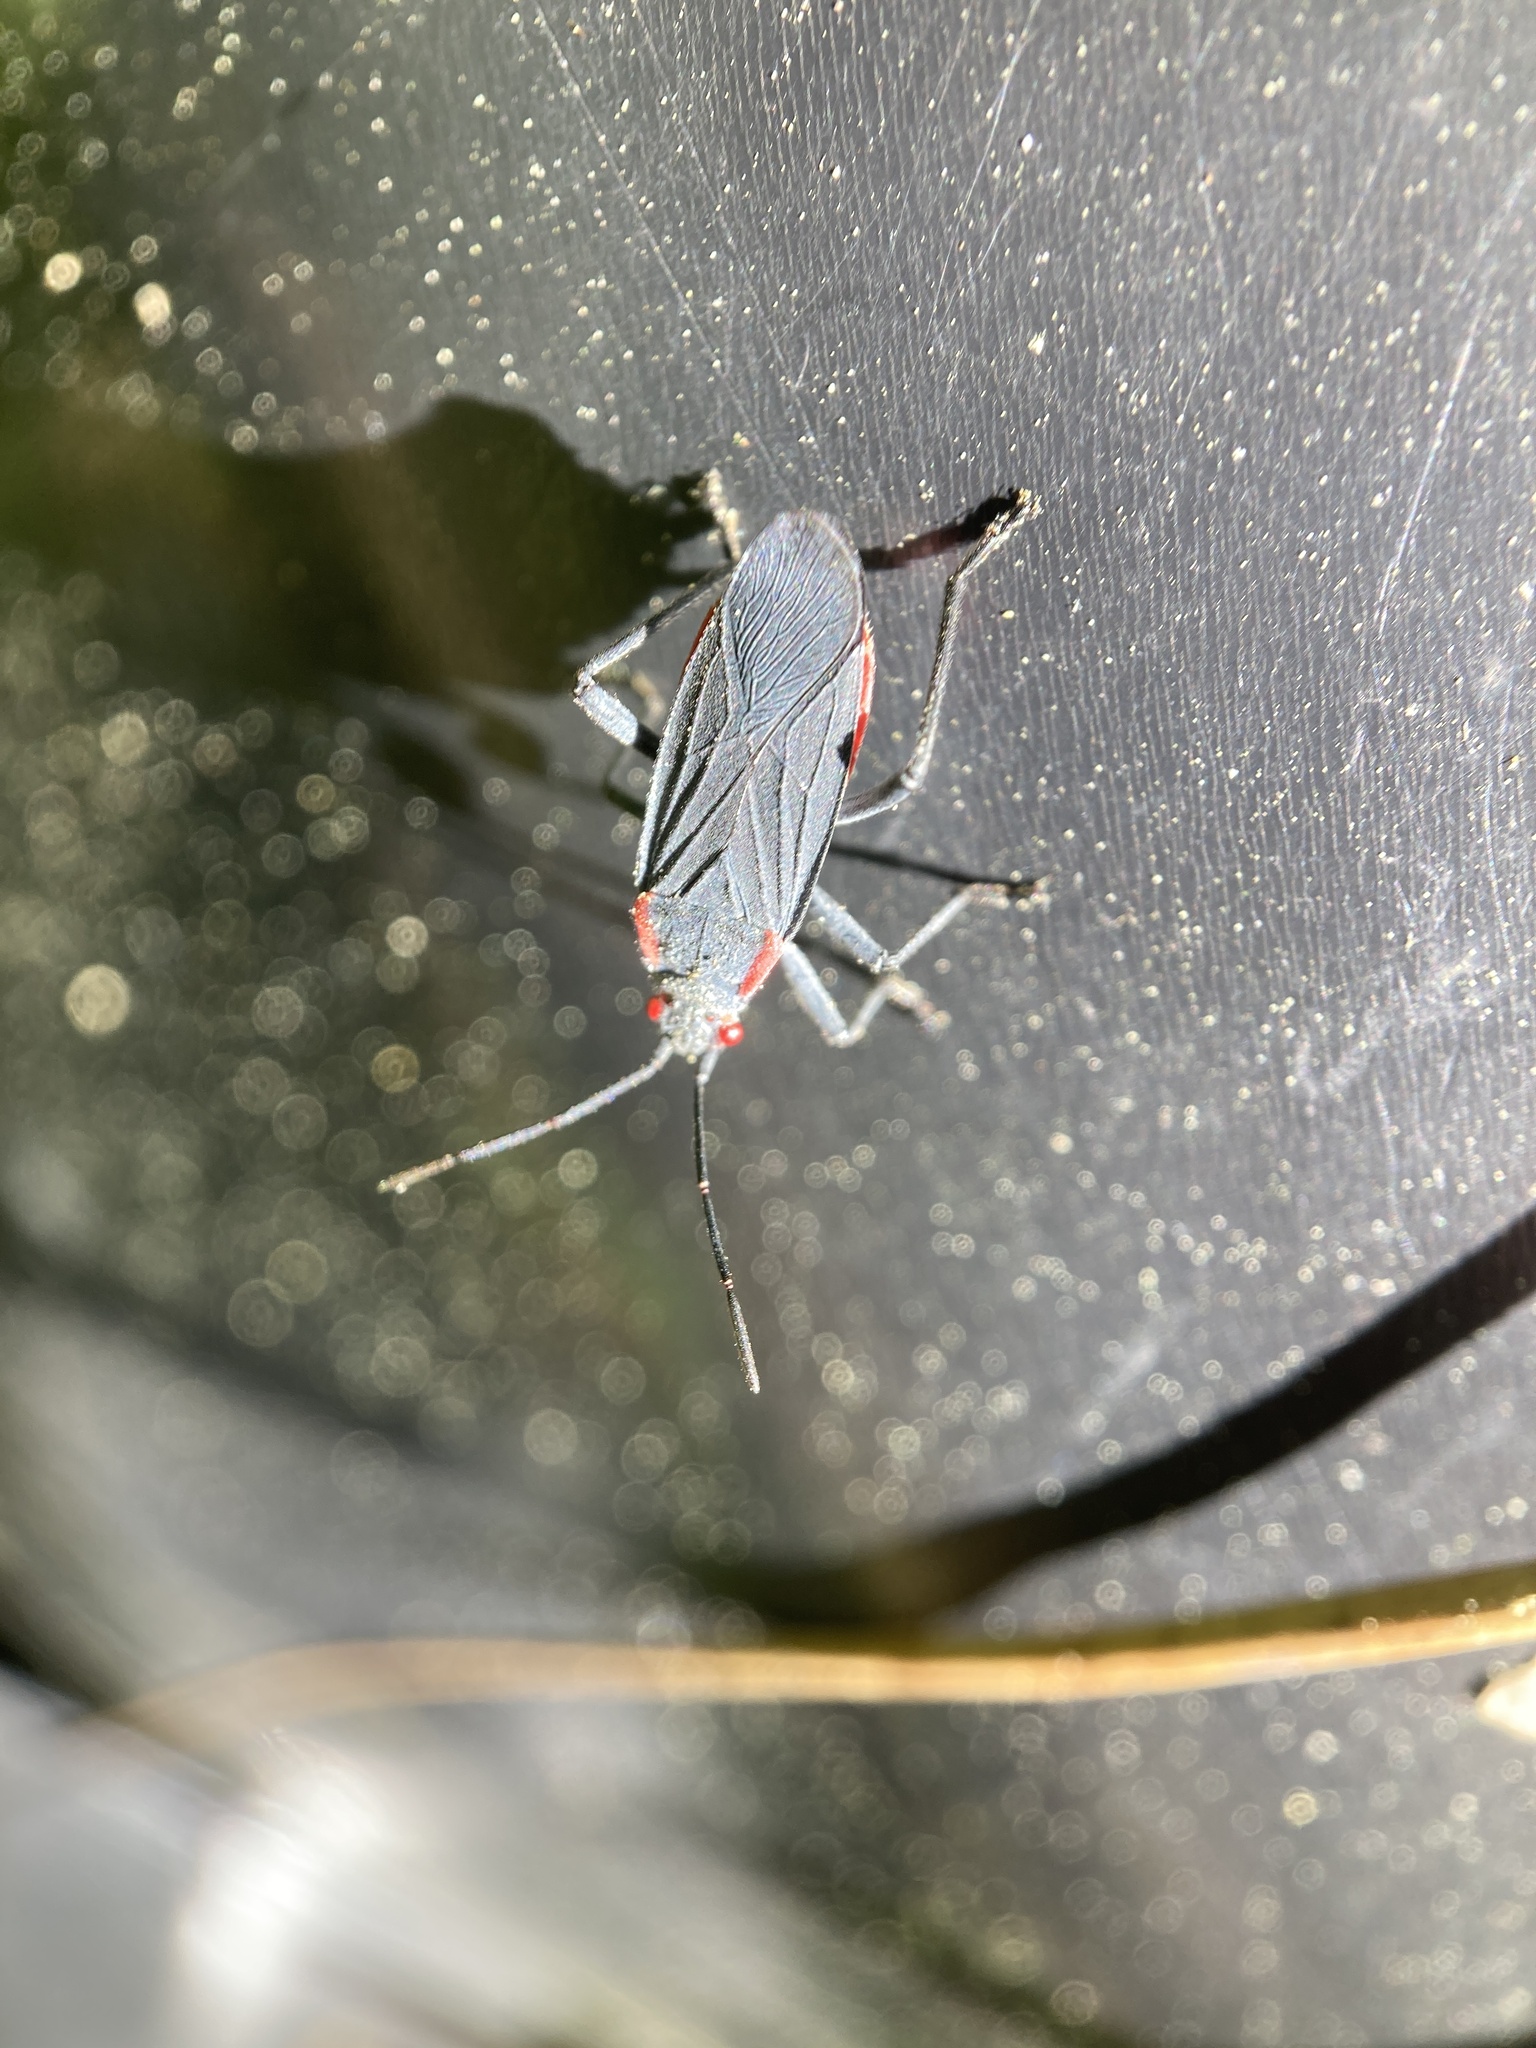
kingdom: Animalia
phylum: Arthropoda
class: Insecta
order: Hemiptera
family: Rhopalidae
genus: Jadera
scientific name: Jadera haematoloma
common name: Red-shouldered bug
